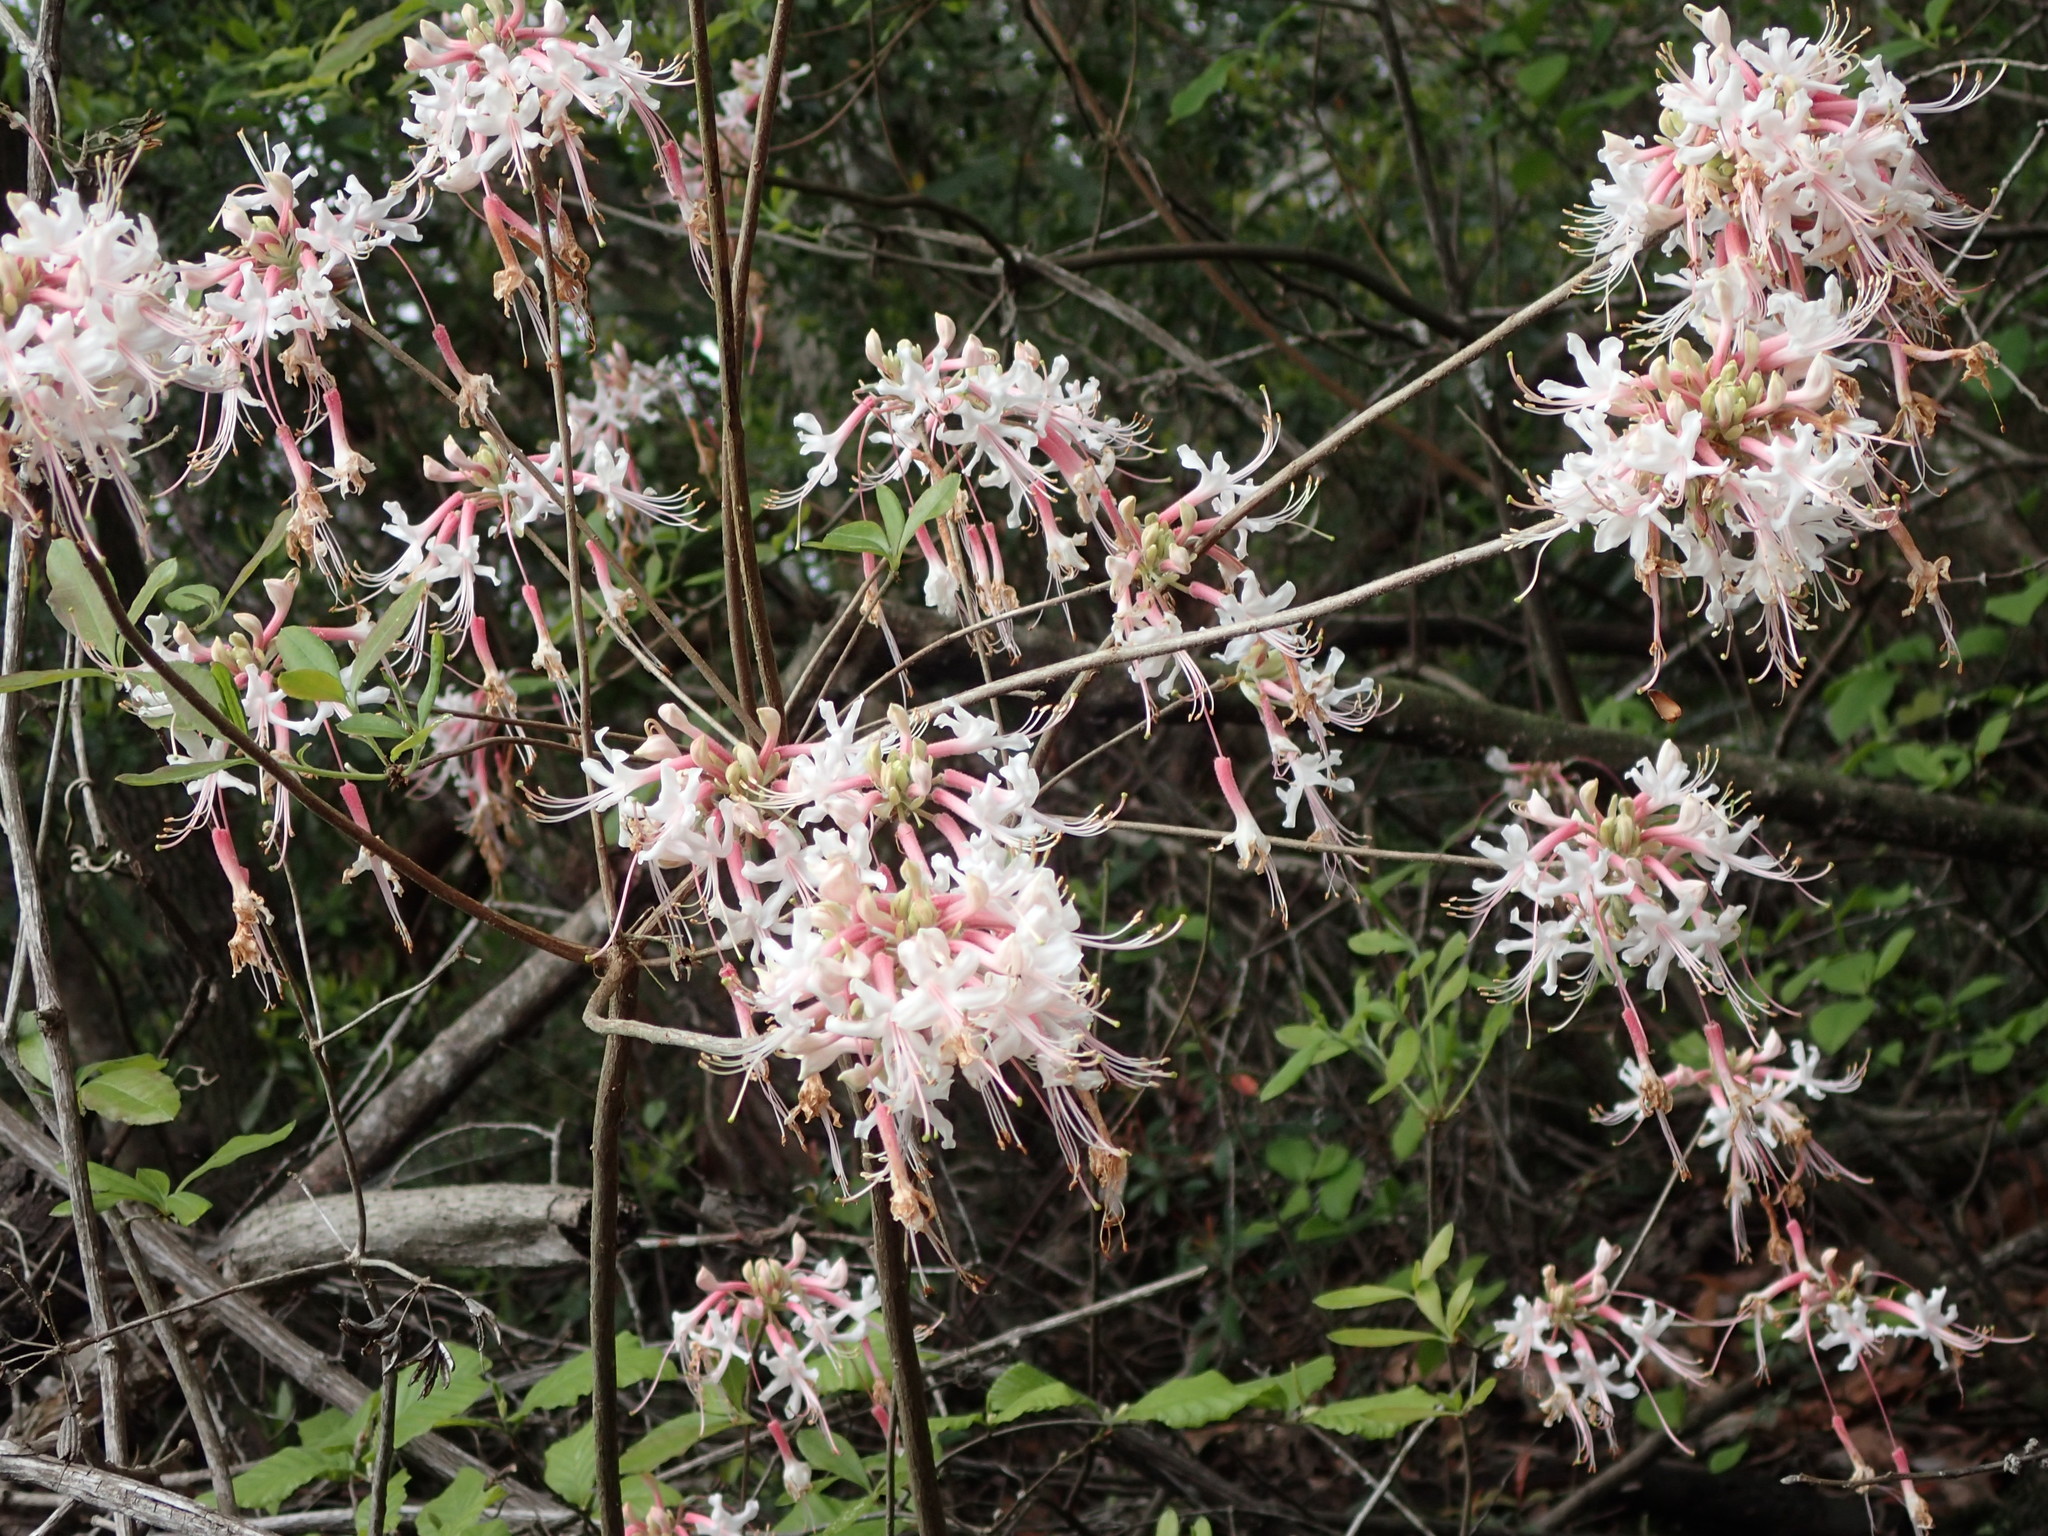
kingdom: Plantae
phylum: Tracheophyta
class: Magnoliopsida
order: Ericales
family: Ericaceae
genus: Rhododendron
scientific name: Rhododendron canescens
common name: Mountain azalea
